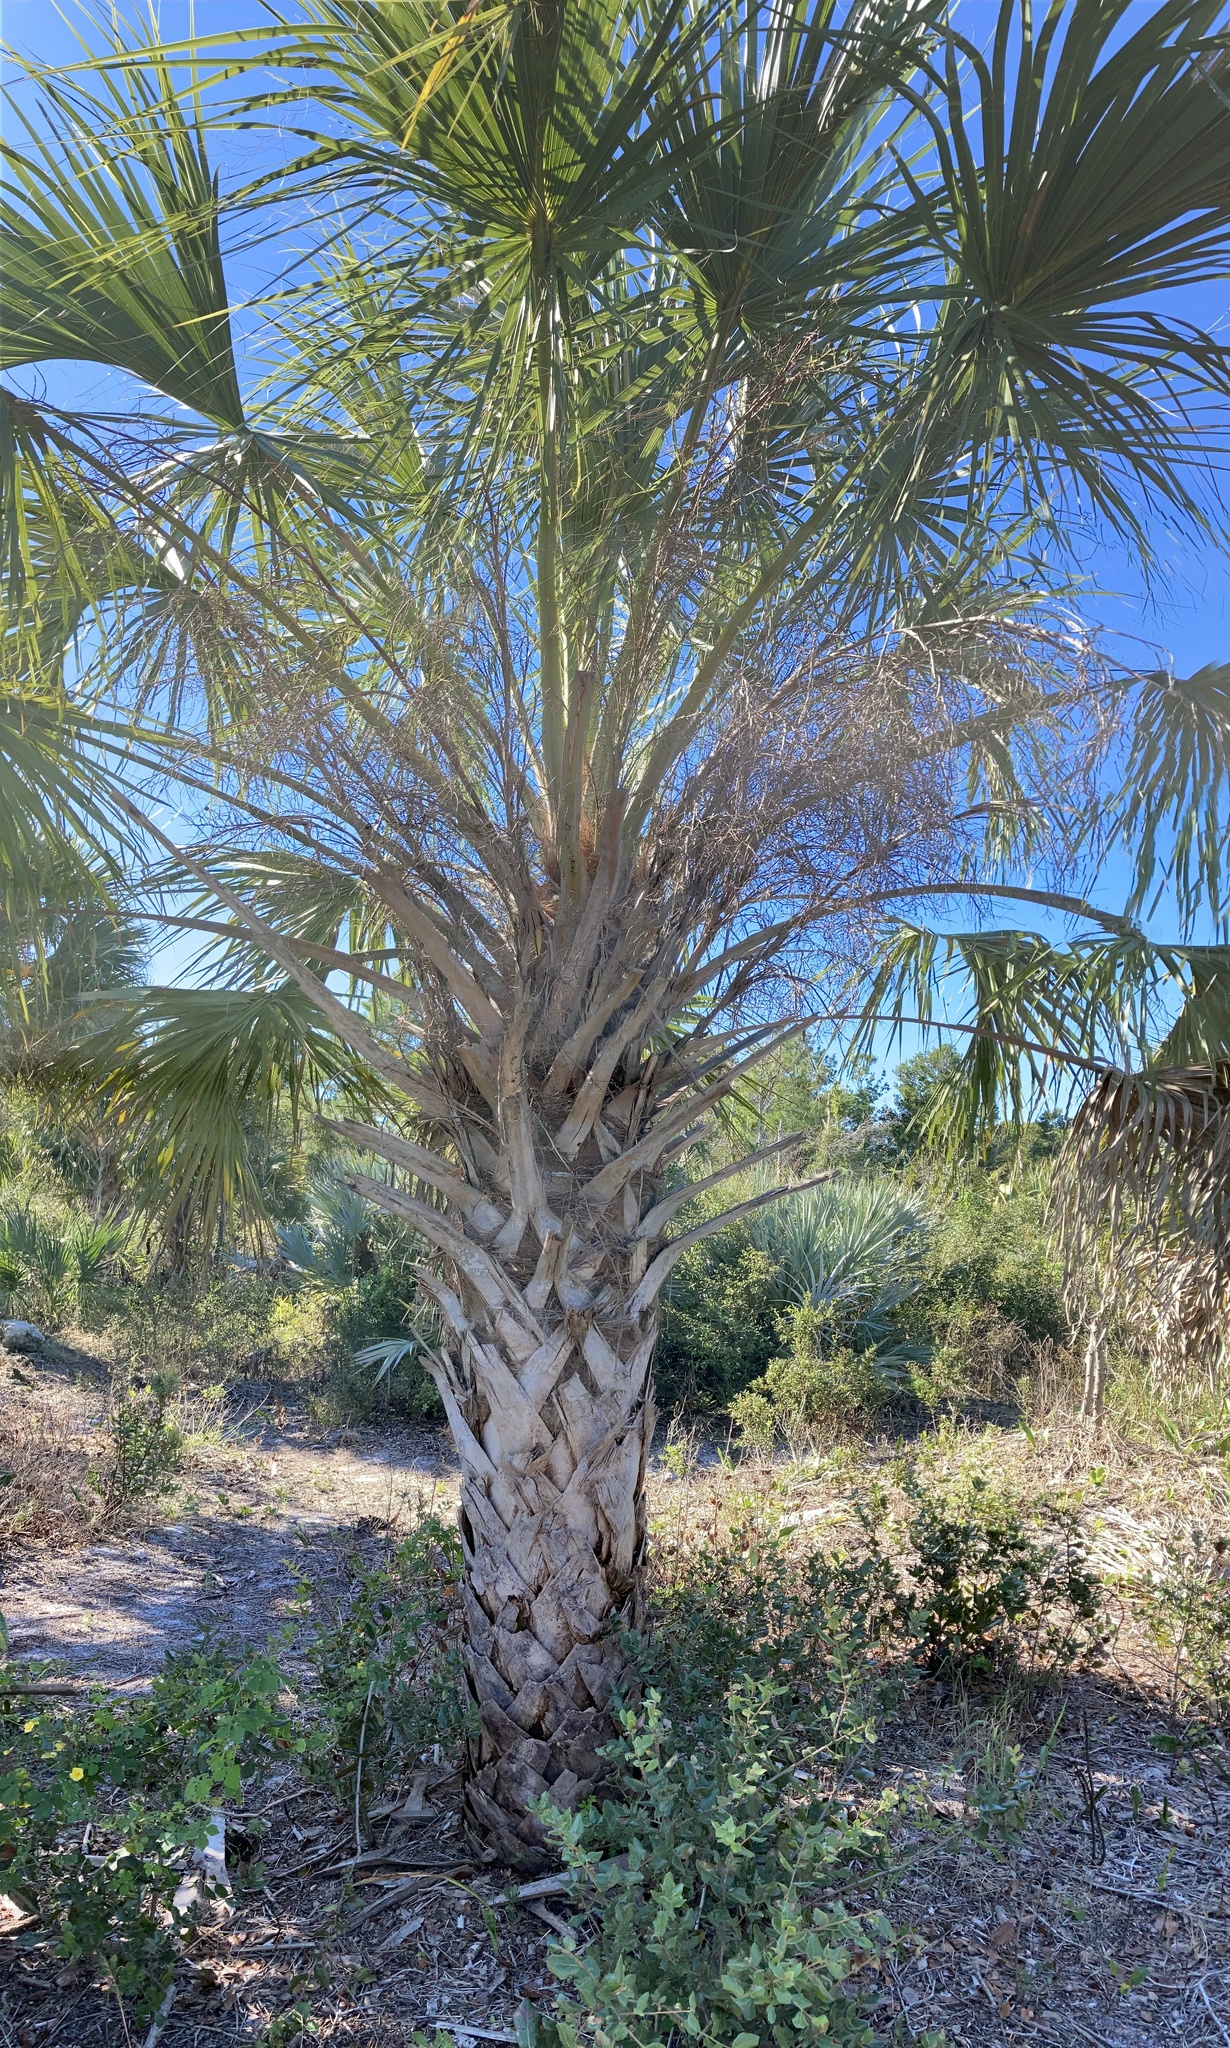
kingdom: Plantae
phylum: Tracheophyta
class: Liliopsida
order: Arecales
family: Arecaceae
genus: Sabal
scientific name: Sabal palmetto
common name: Blue palmetto
